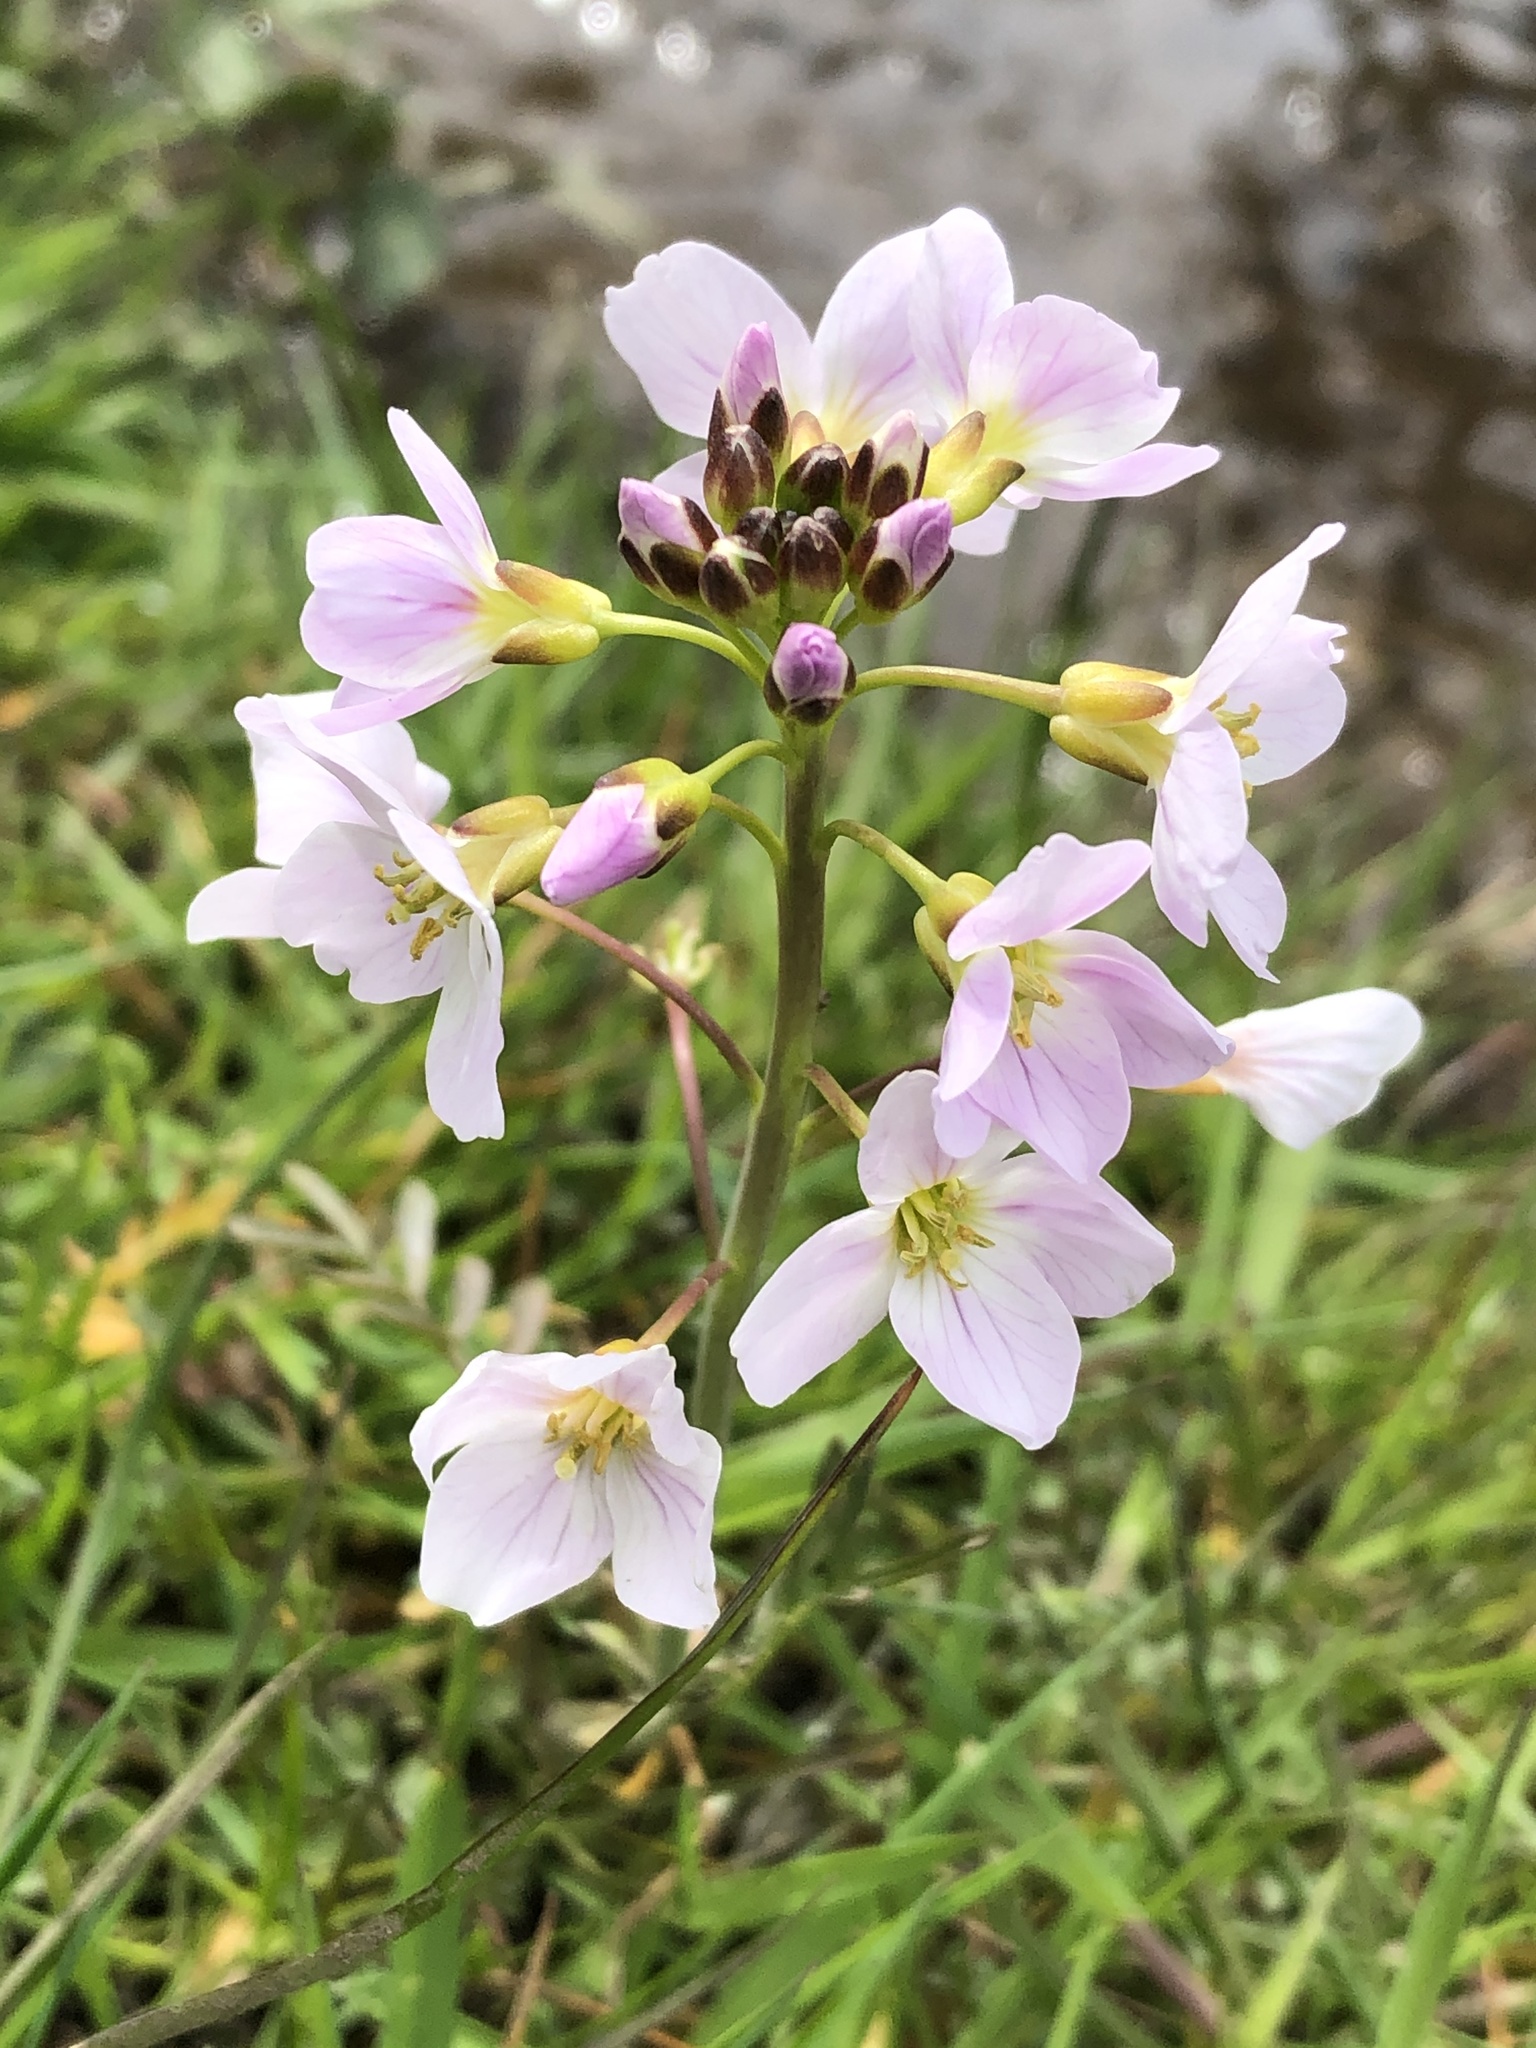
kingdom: Plantae
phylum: Tracheophyta
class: Magnoliopsida
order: Brassicales
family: Brassicaceae
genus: Cardamine
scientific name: Cardamine pratensis
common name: Cuckoo flower
